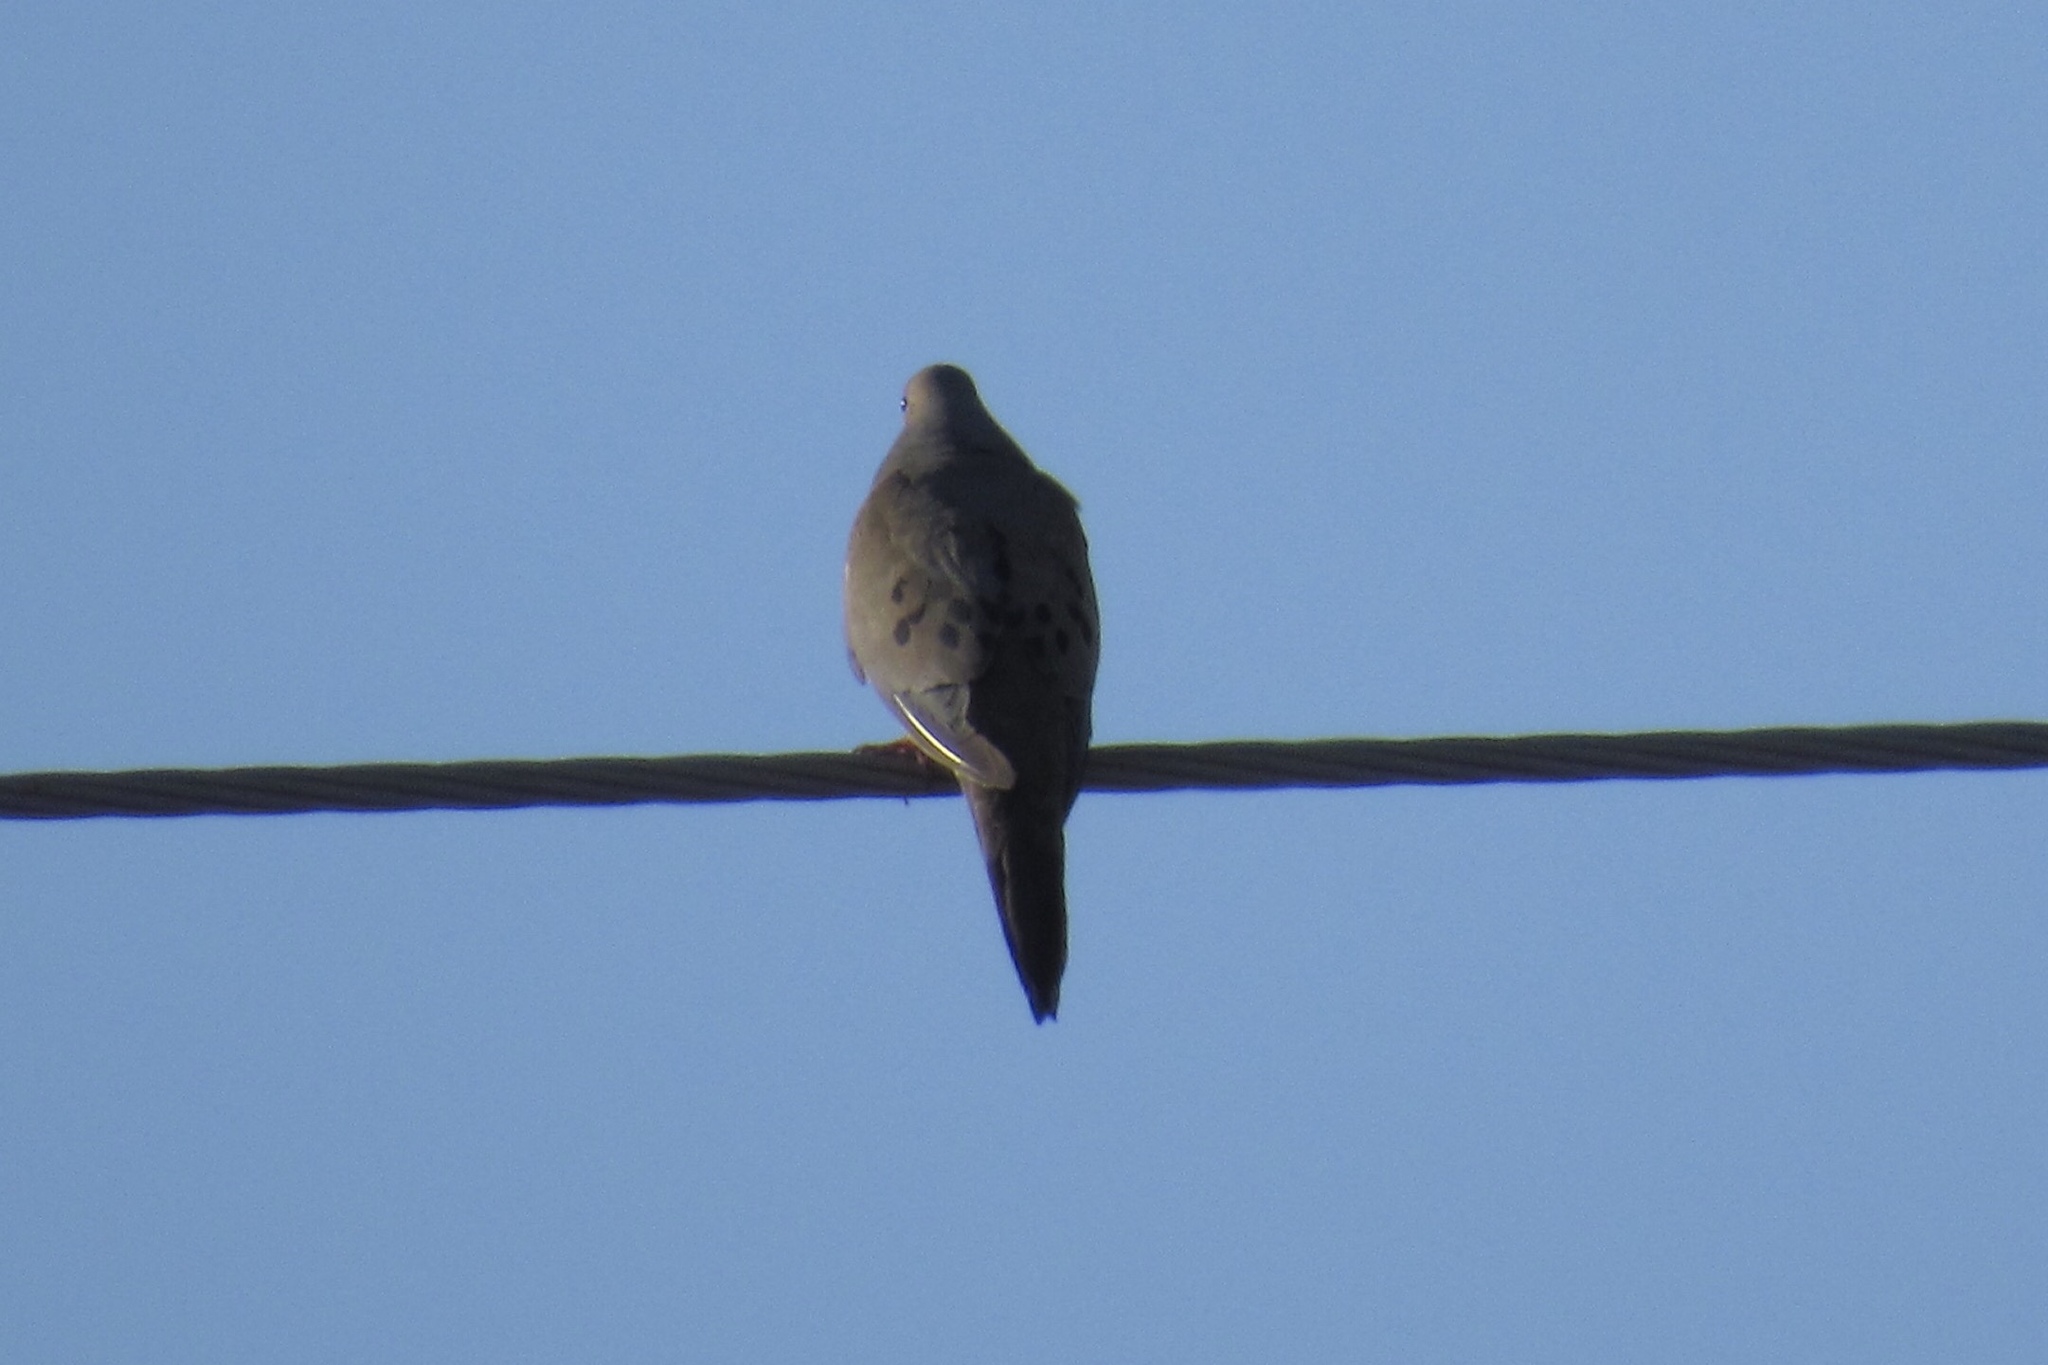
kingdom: Animalia
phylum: Chordata
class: Aves
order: Columbiformes
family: Columbidae
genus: Zenaida
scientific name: Zenaida macroura
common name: Mourning dove
